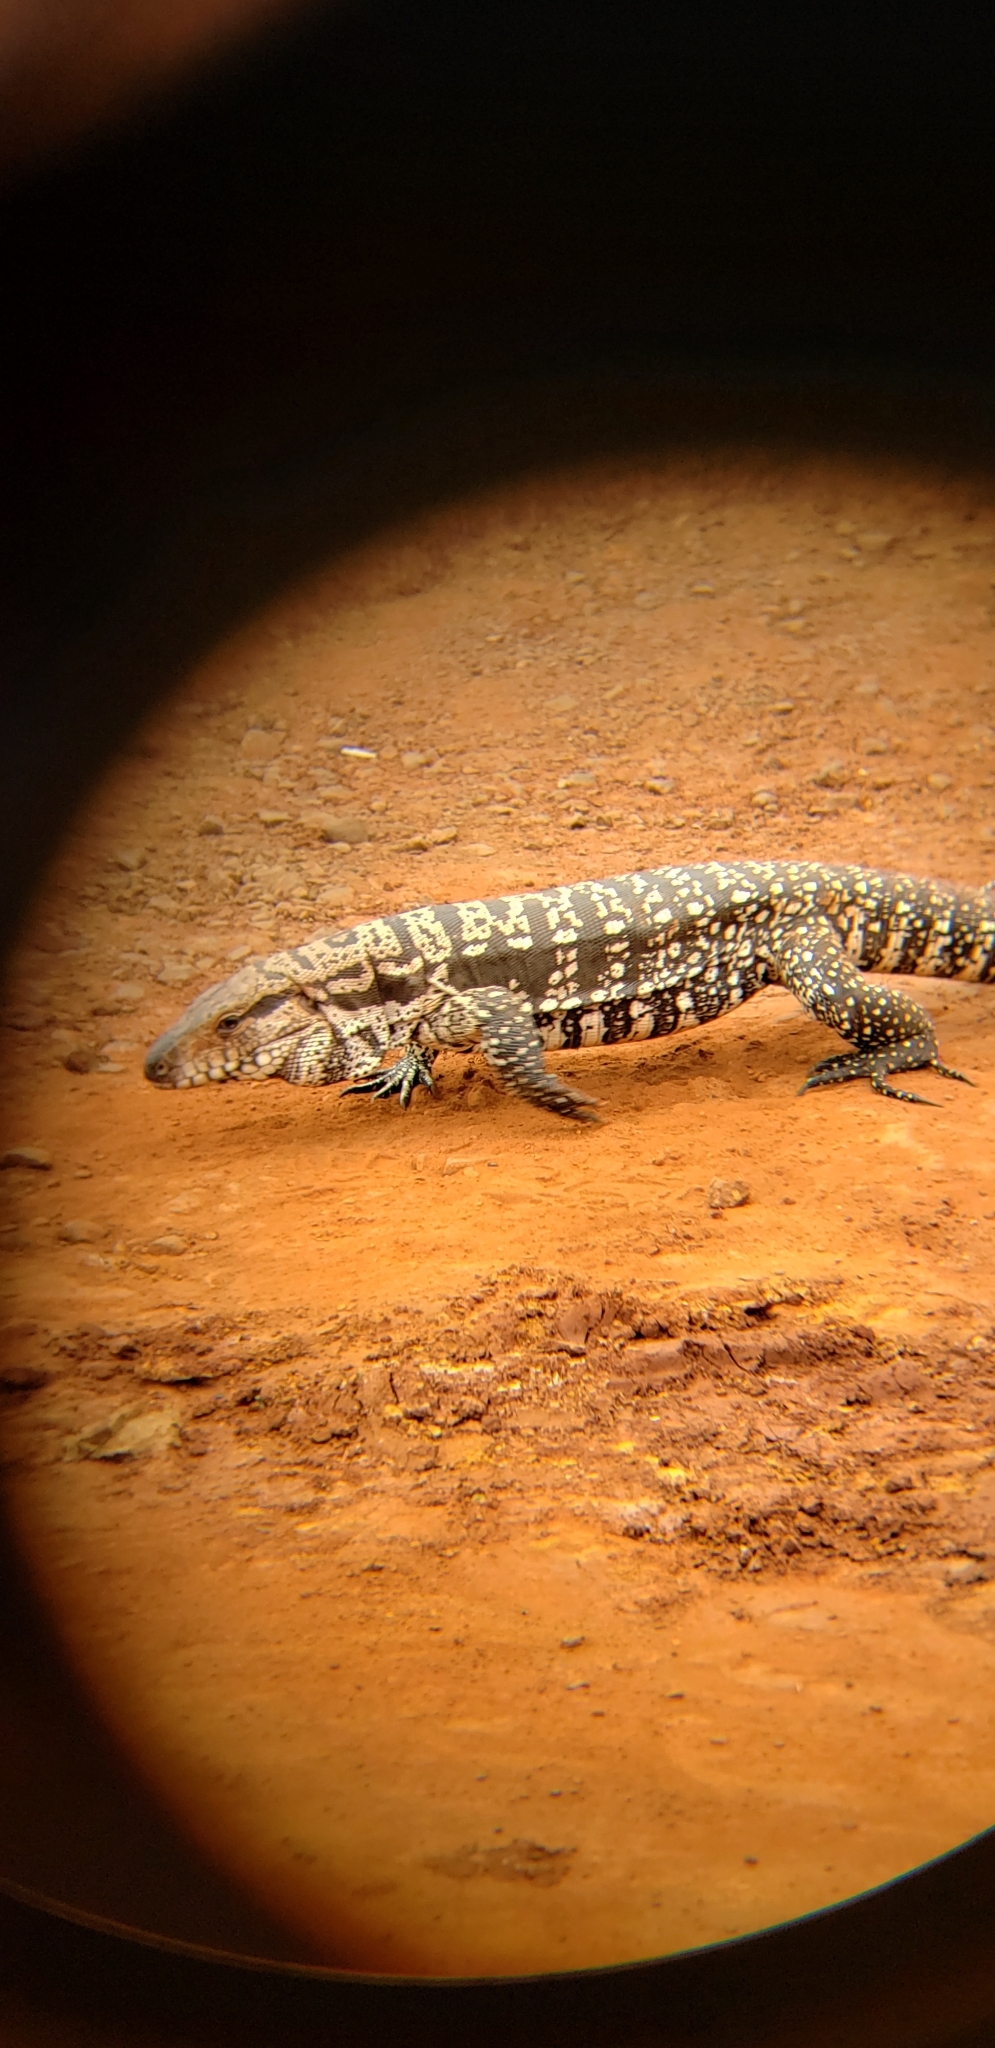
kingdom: Animalia
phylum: Chordata
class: Squamata
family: Teiidae
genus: Salvator
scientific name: Salvator merianae
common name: Argentine black and white tegu
